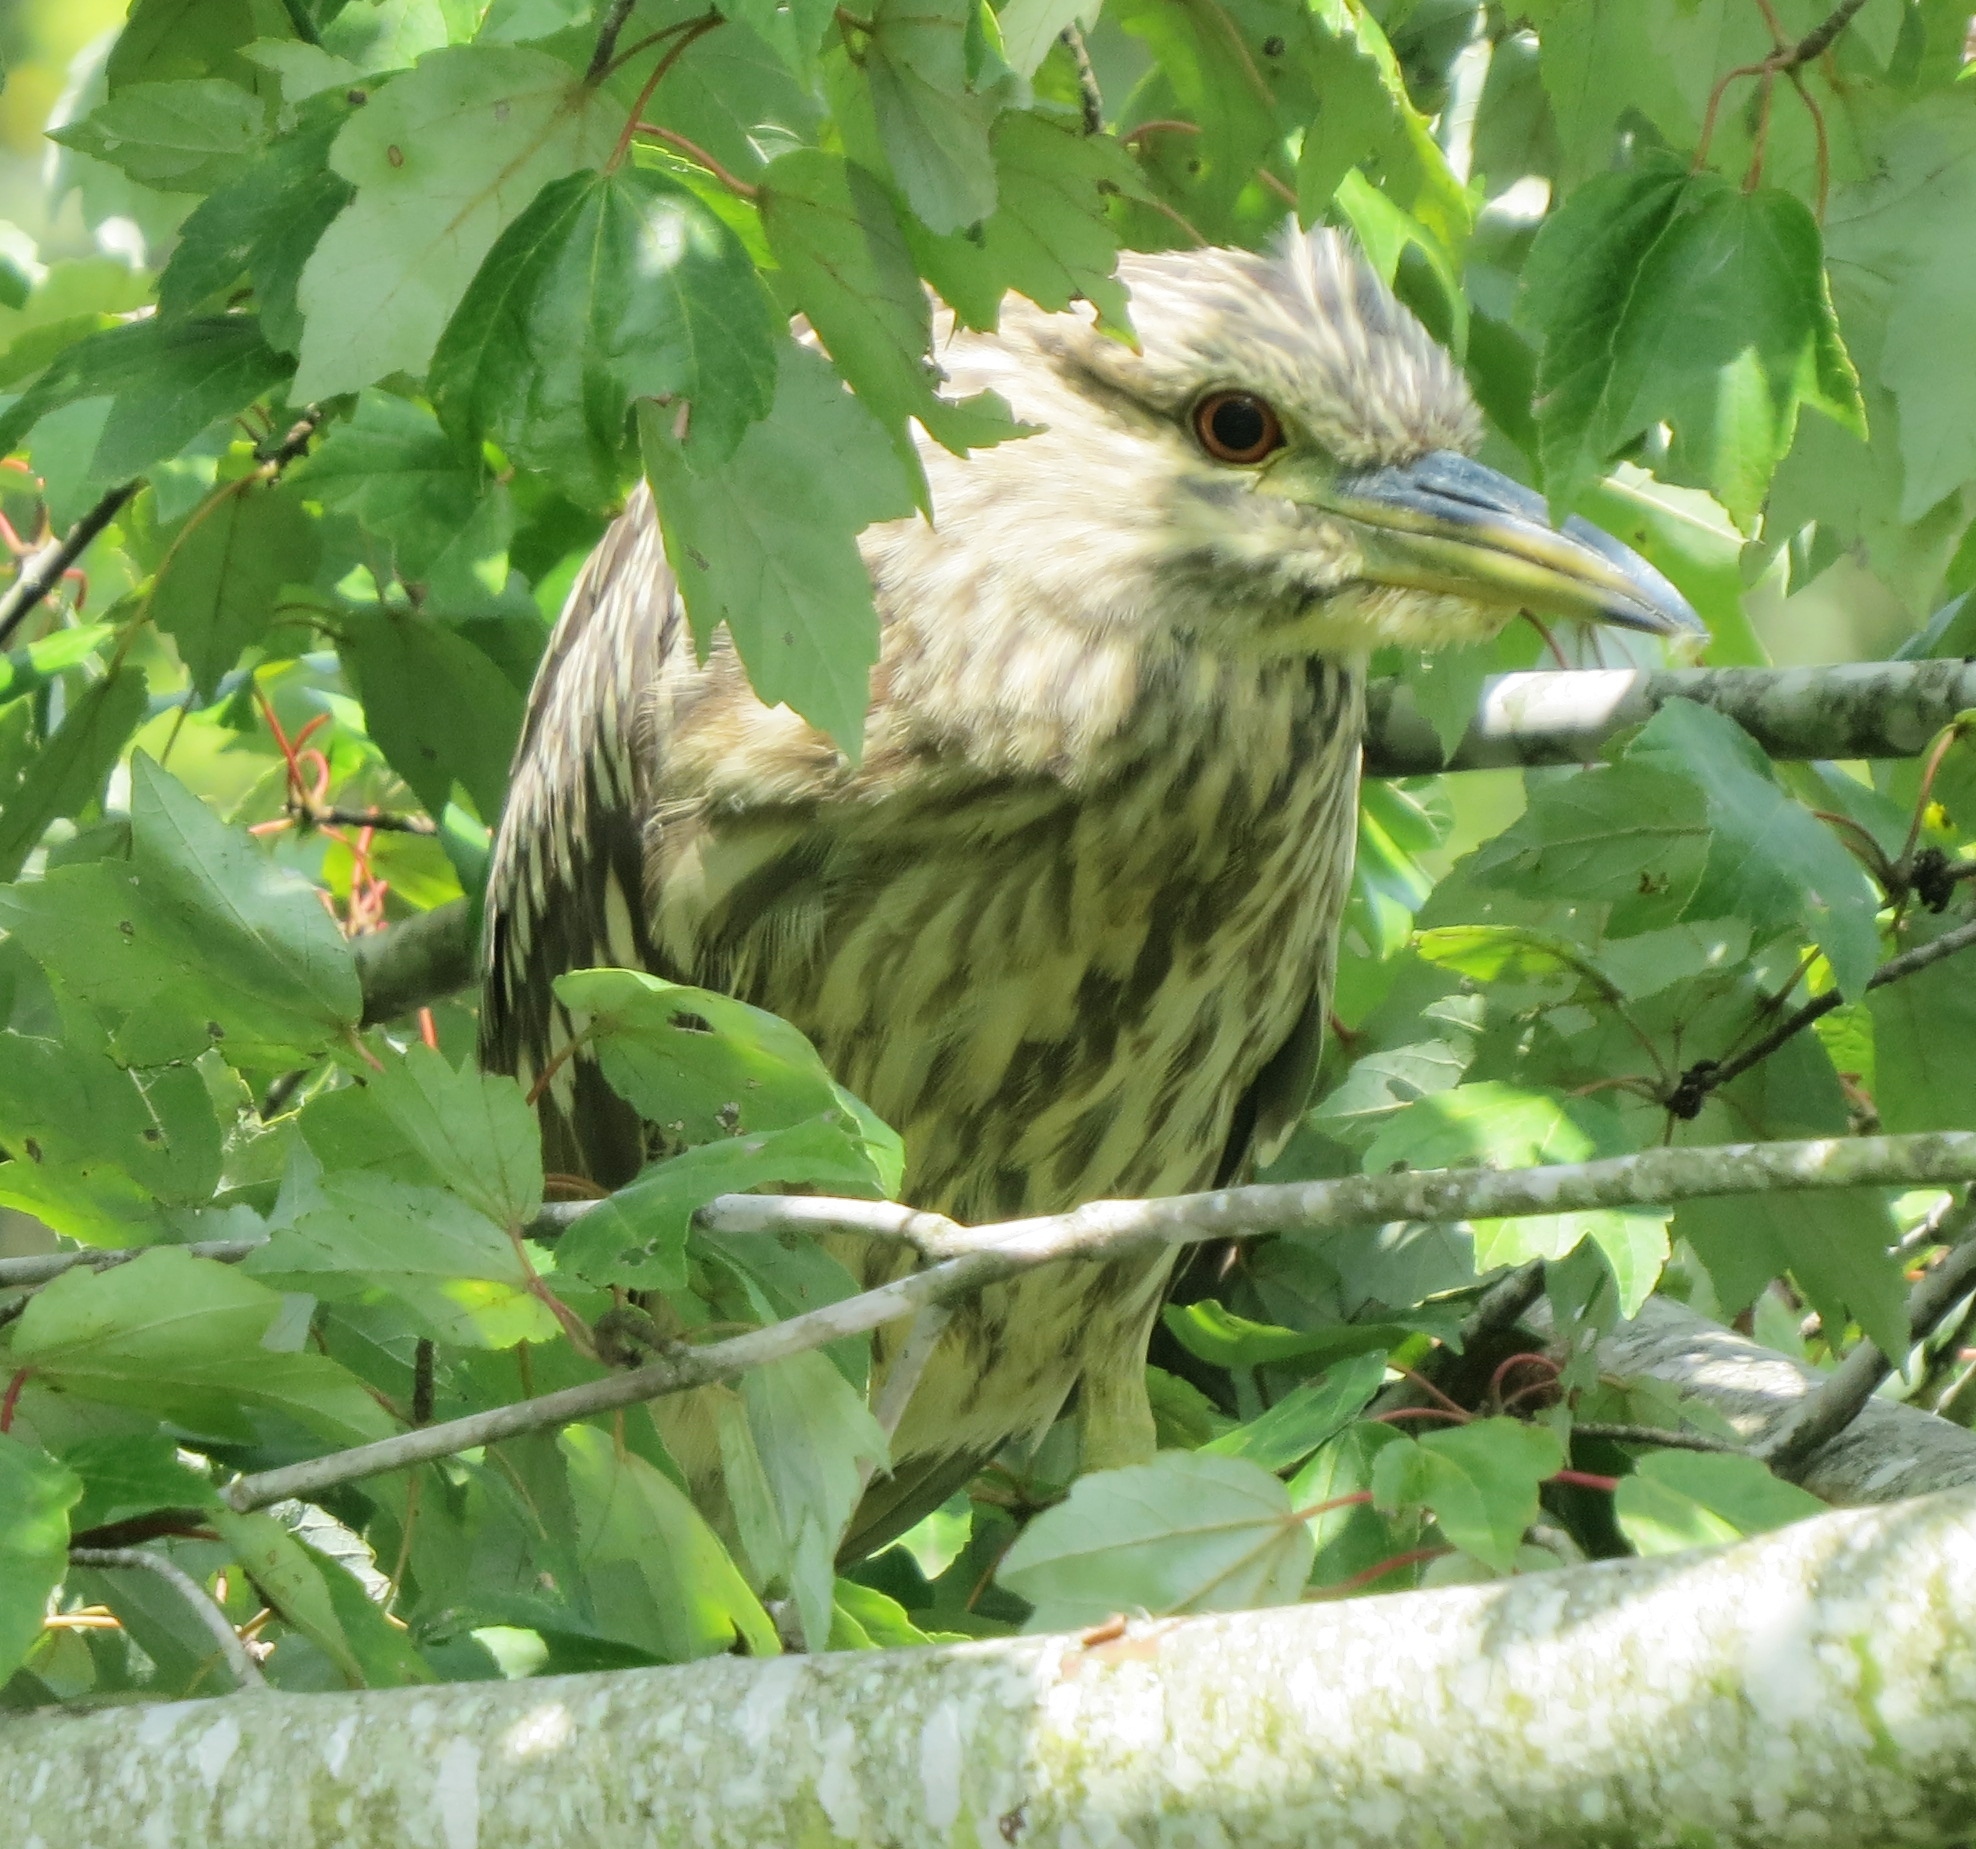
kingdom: Animalia
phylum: Chordata
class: Aves
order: Pelecaniformes
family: Ardeidae
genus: Nycticorax
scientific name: Nycticorax nycticorax
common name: Black-crowned night heron
